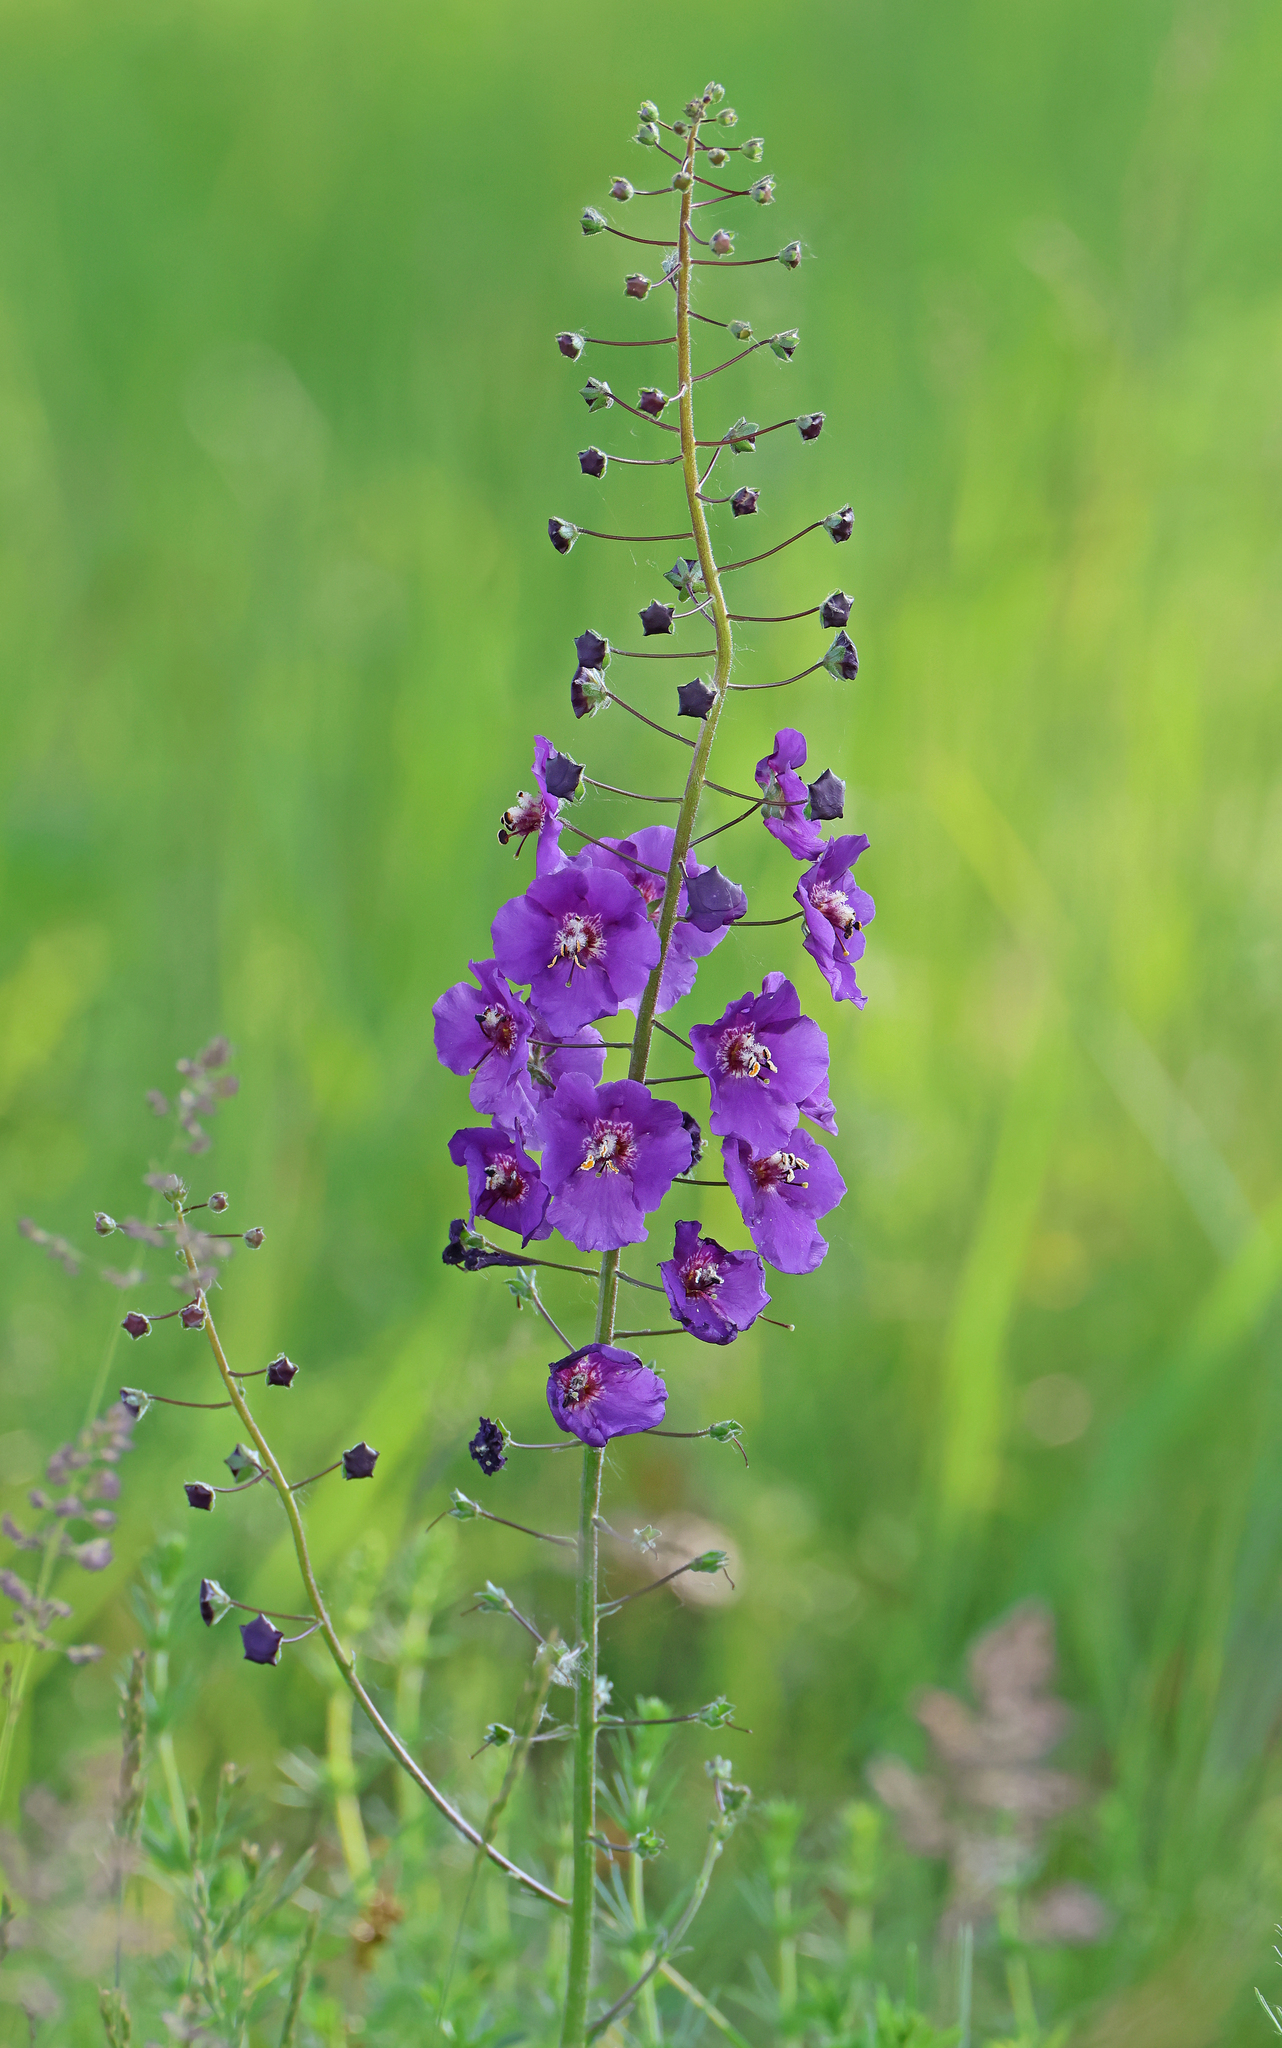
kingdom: Plantae
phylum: Tracheophyta
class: Magnoliopsida
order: Lamiales
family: Scrophulariaceae
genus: Verbascum
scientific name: Verbascum phoeniceum
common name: Purple mullein
